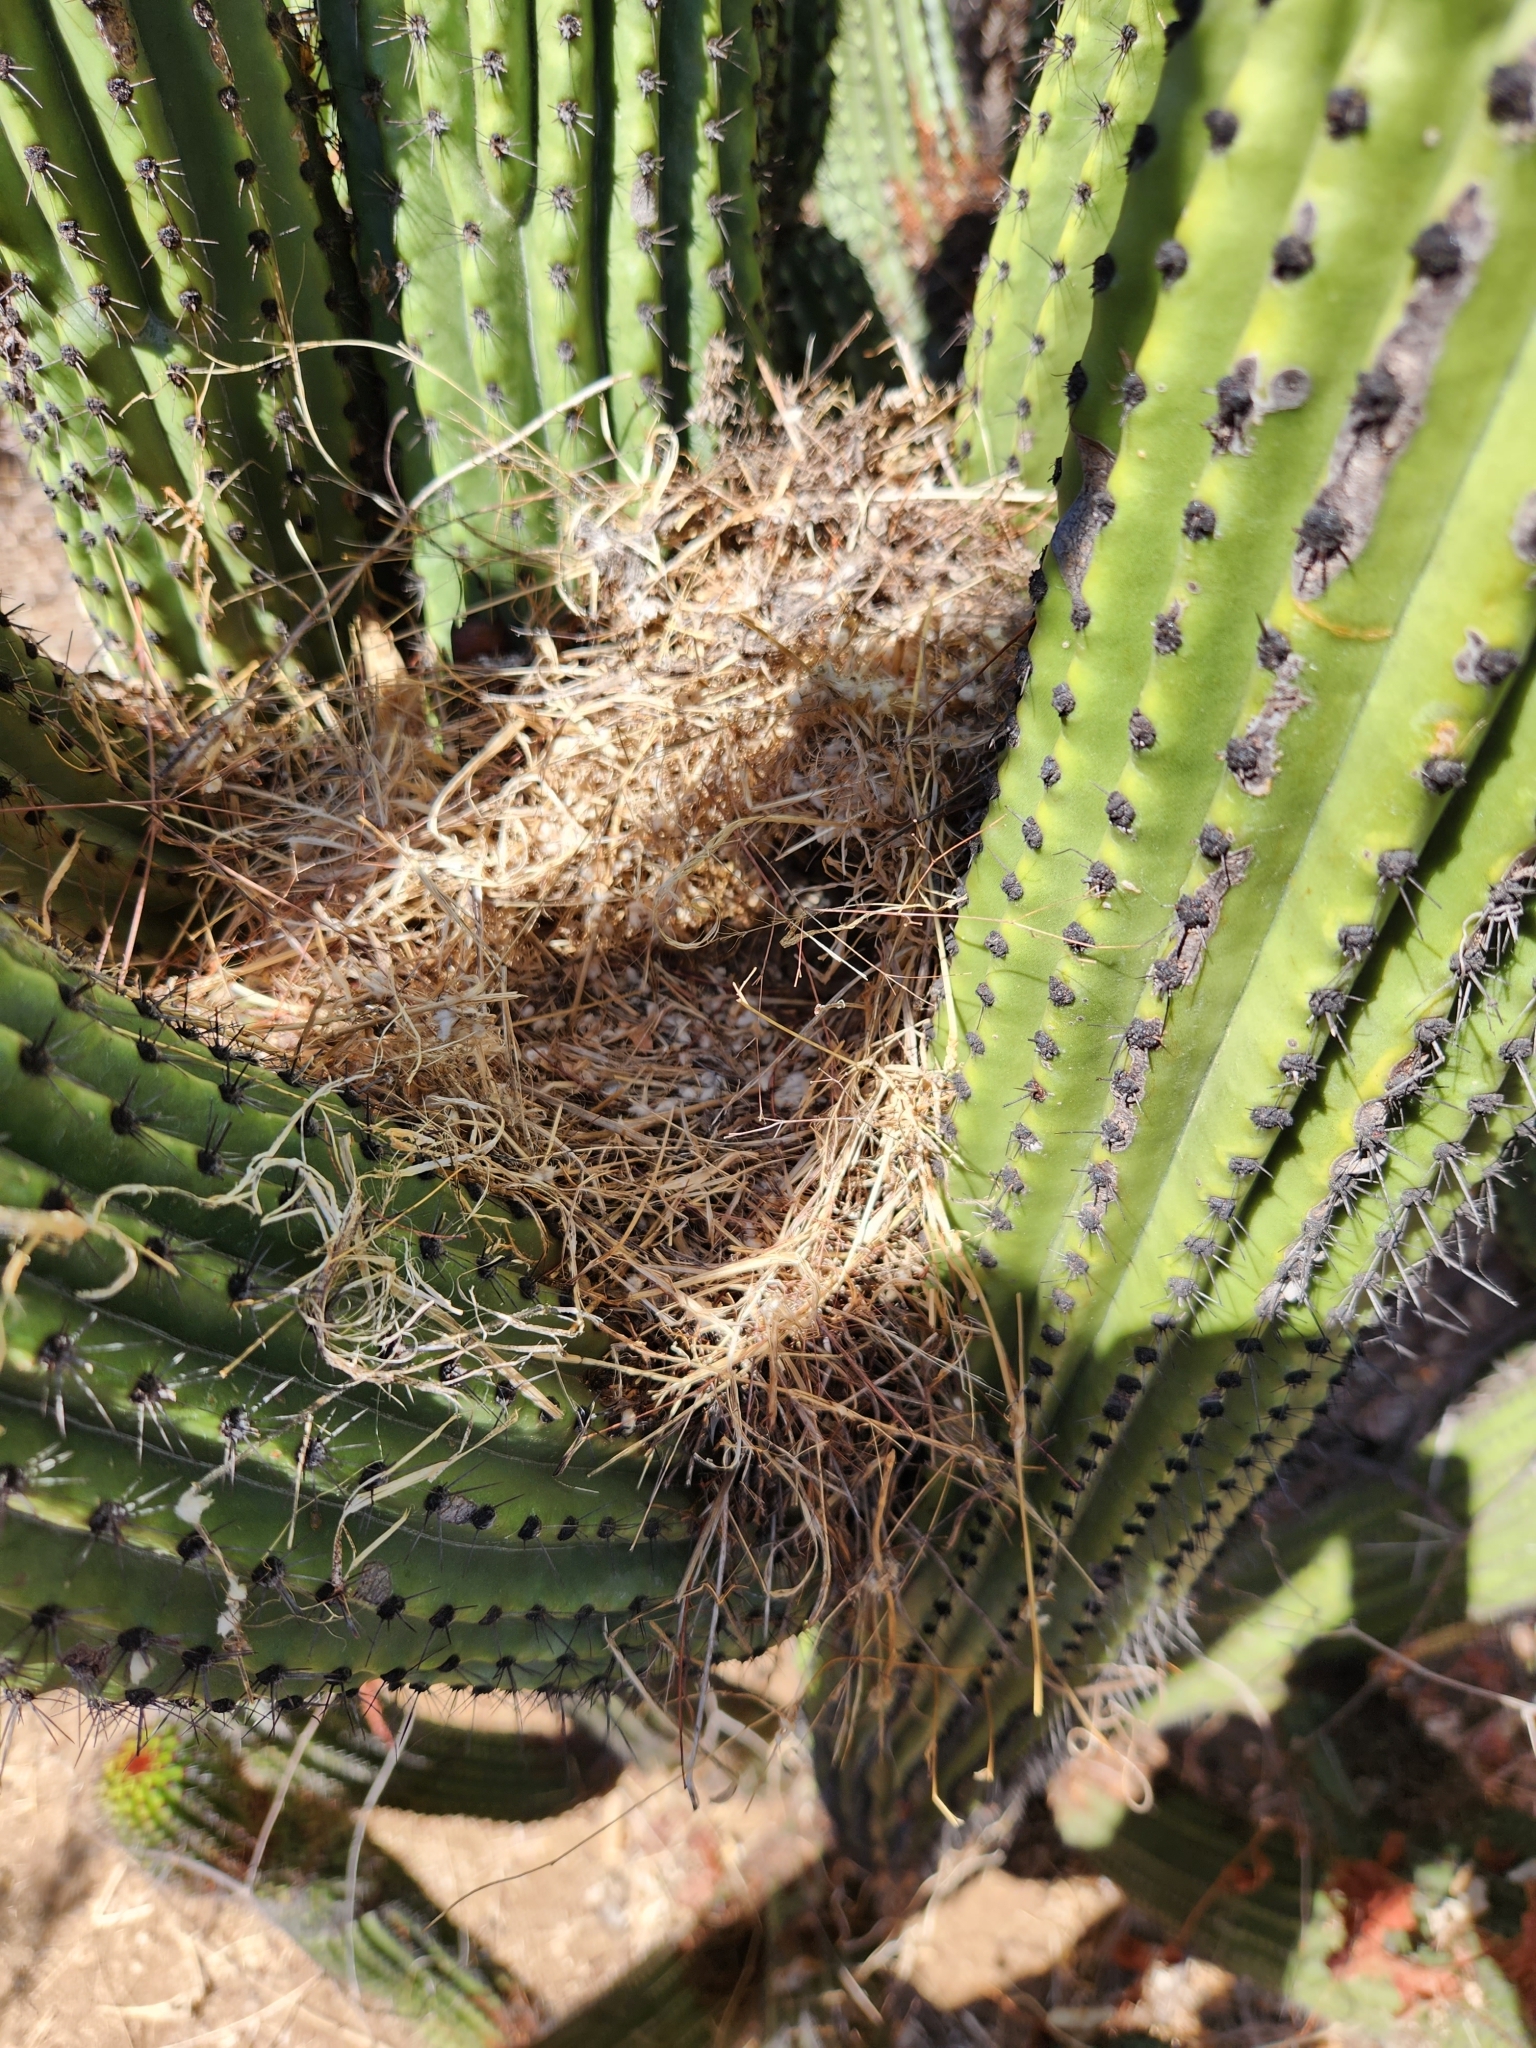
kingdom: Animalia
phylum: Chordata
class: Aves
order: Passeriformes
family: Troglodytidae
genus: Campylorhynchus
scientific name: Campylorhynchus brunneicapillus
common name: Cactus wren
